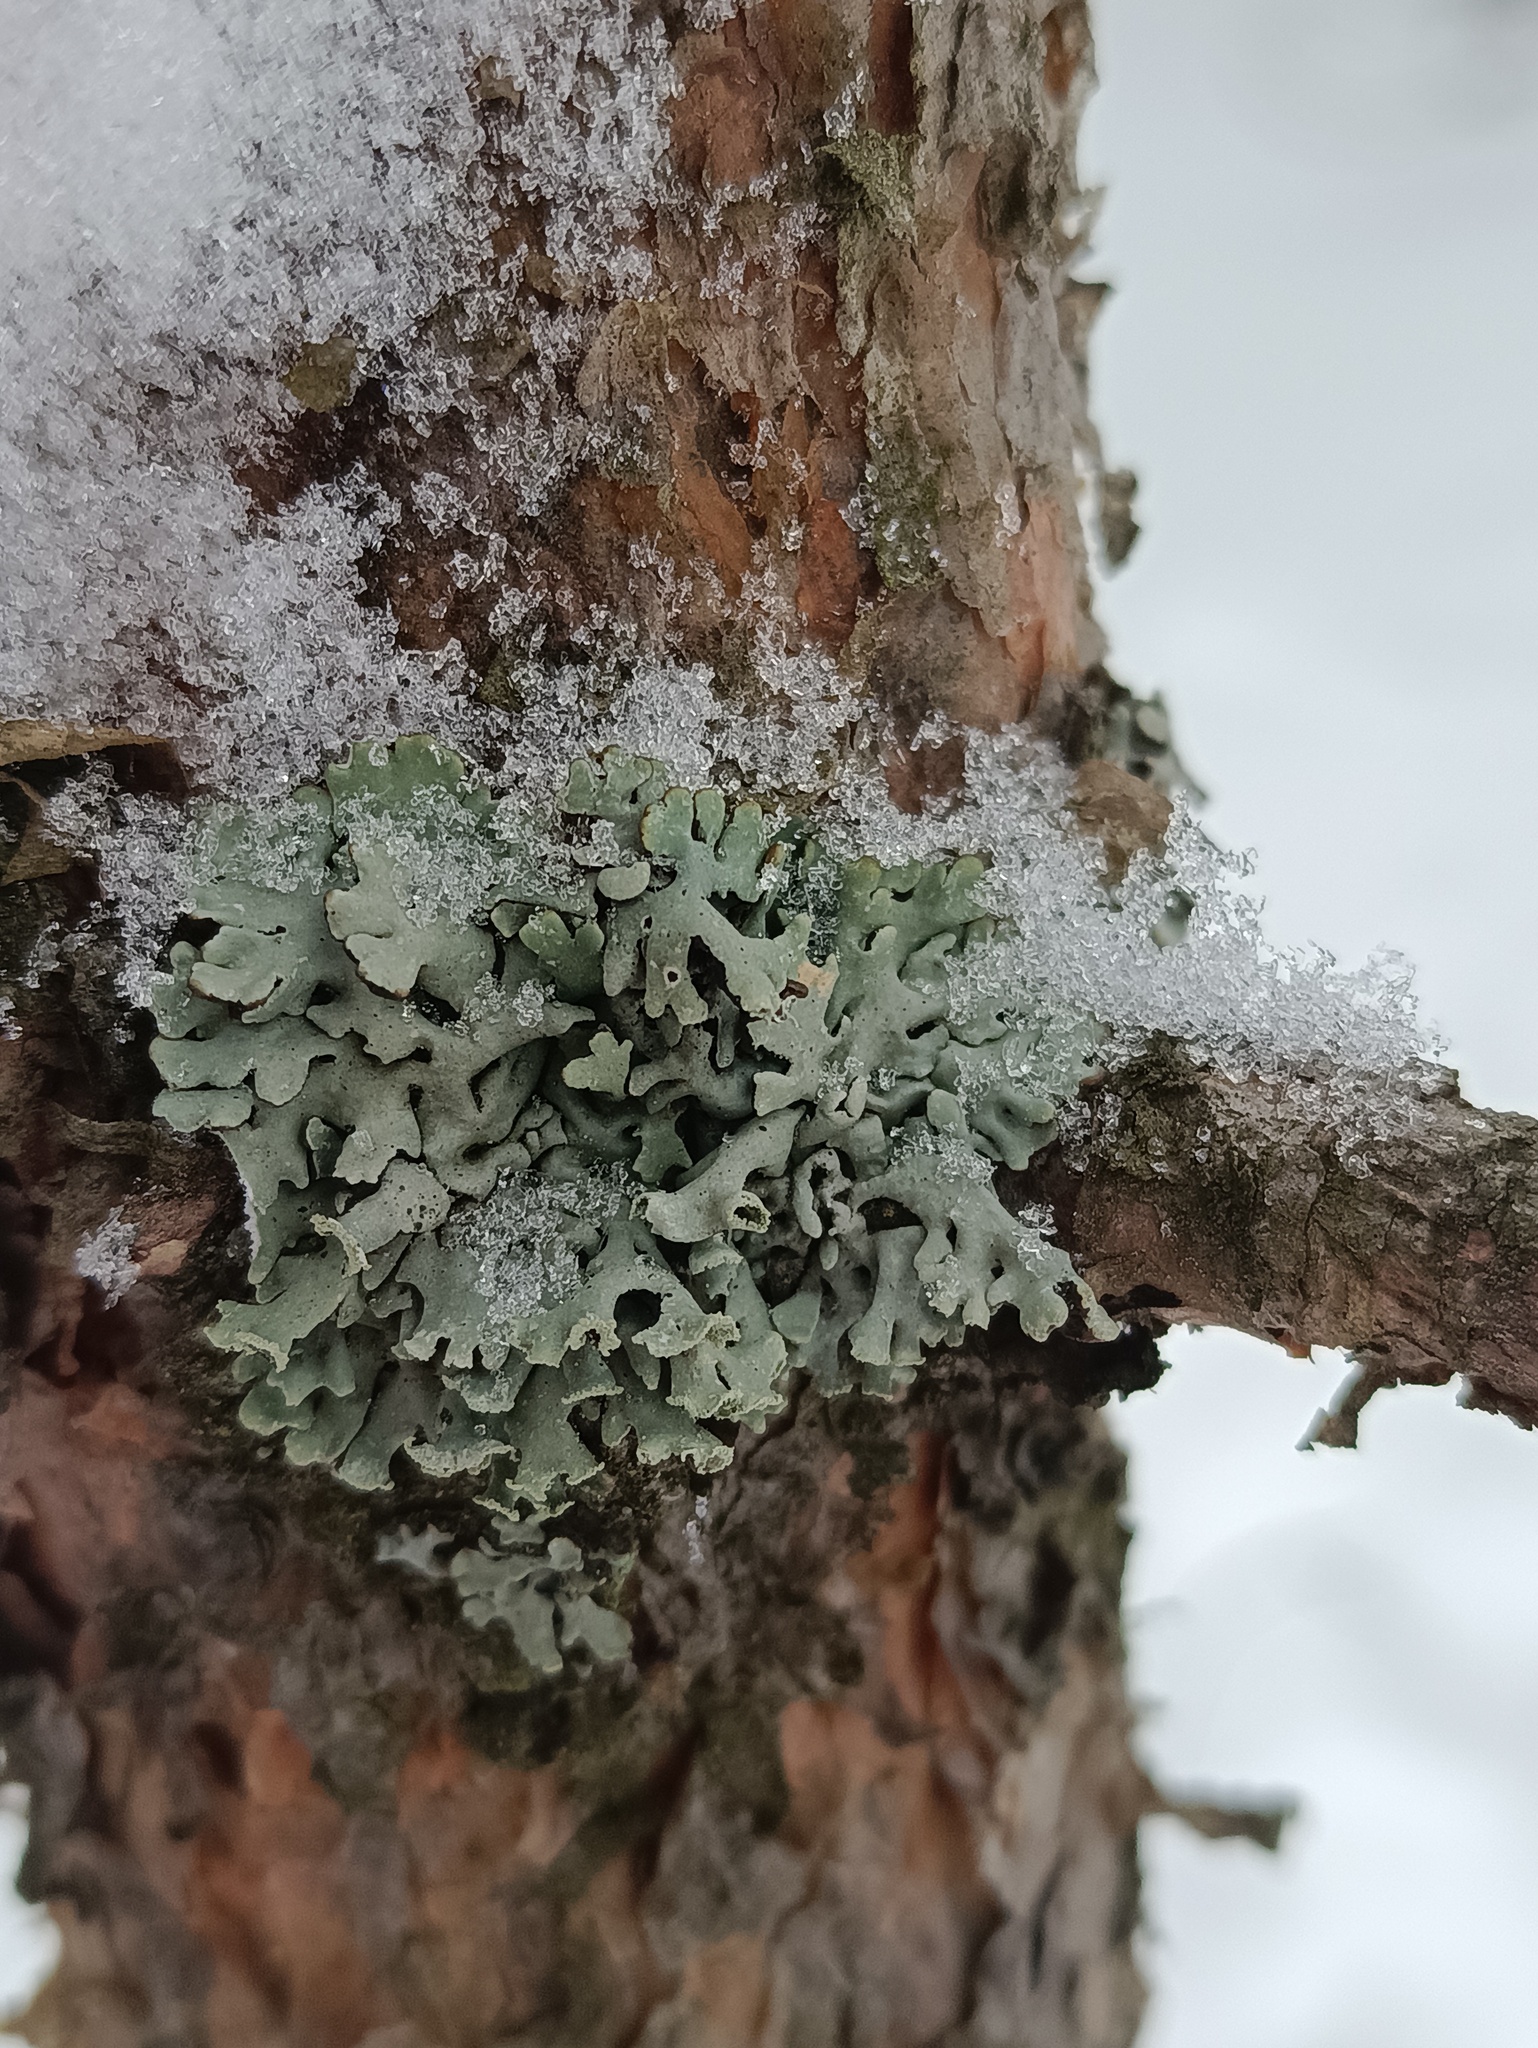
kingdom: Fungi
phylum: Ascomycota
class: Lecanoromycetes
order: Lecanorales
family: Parmeliaceae
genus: Hypogymnia
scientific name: Hypogymnia physodes
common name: Dark crottle
